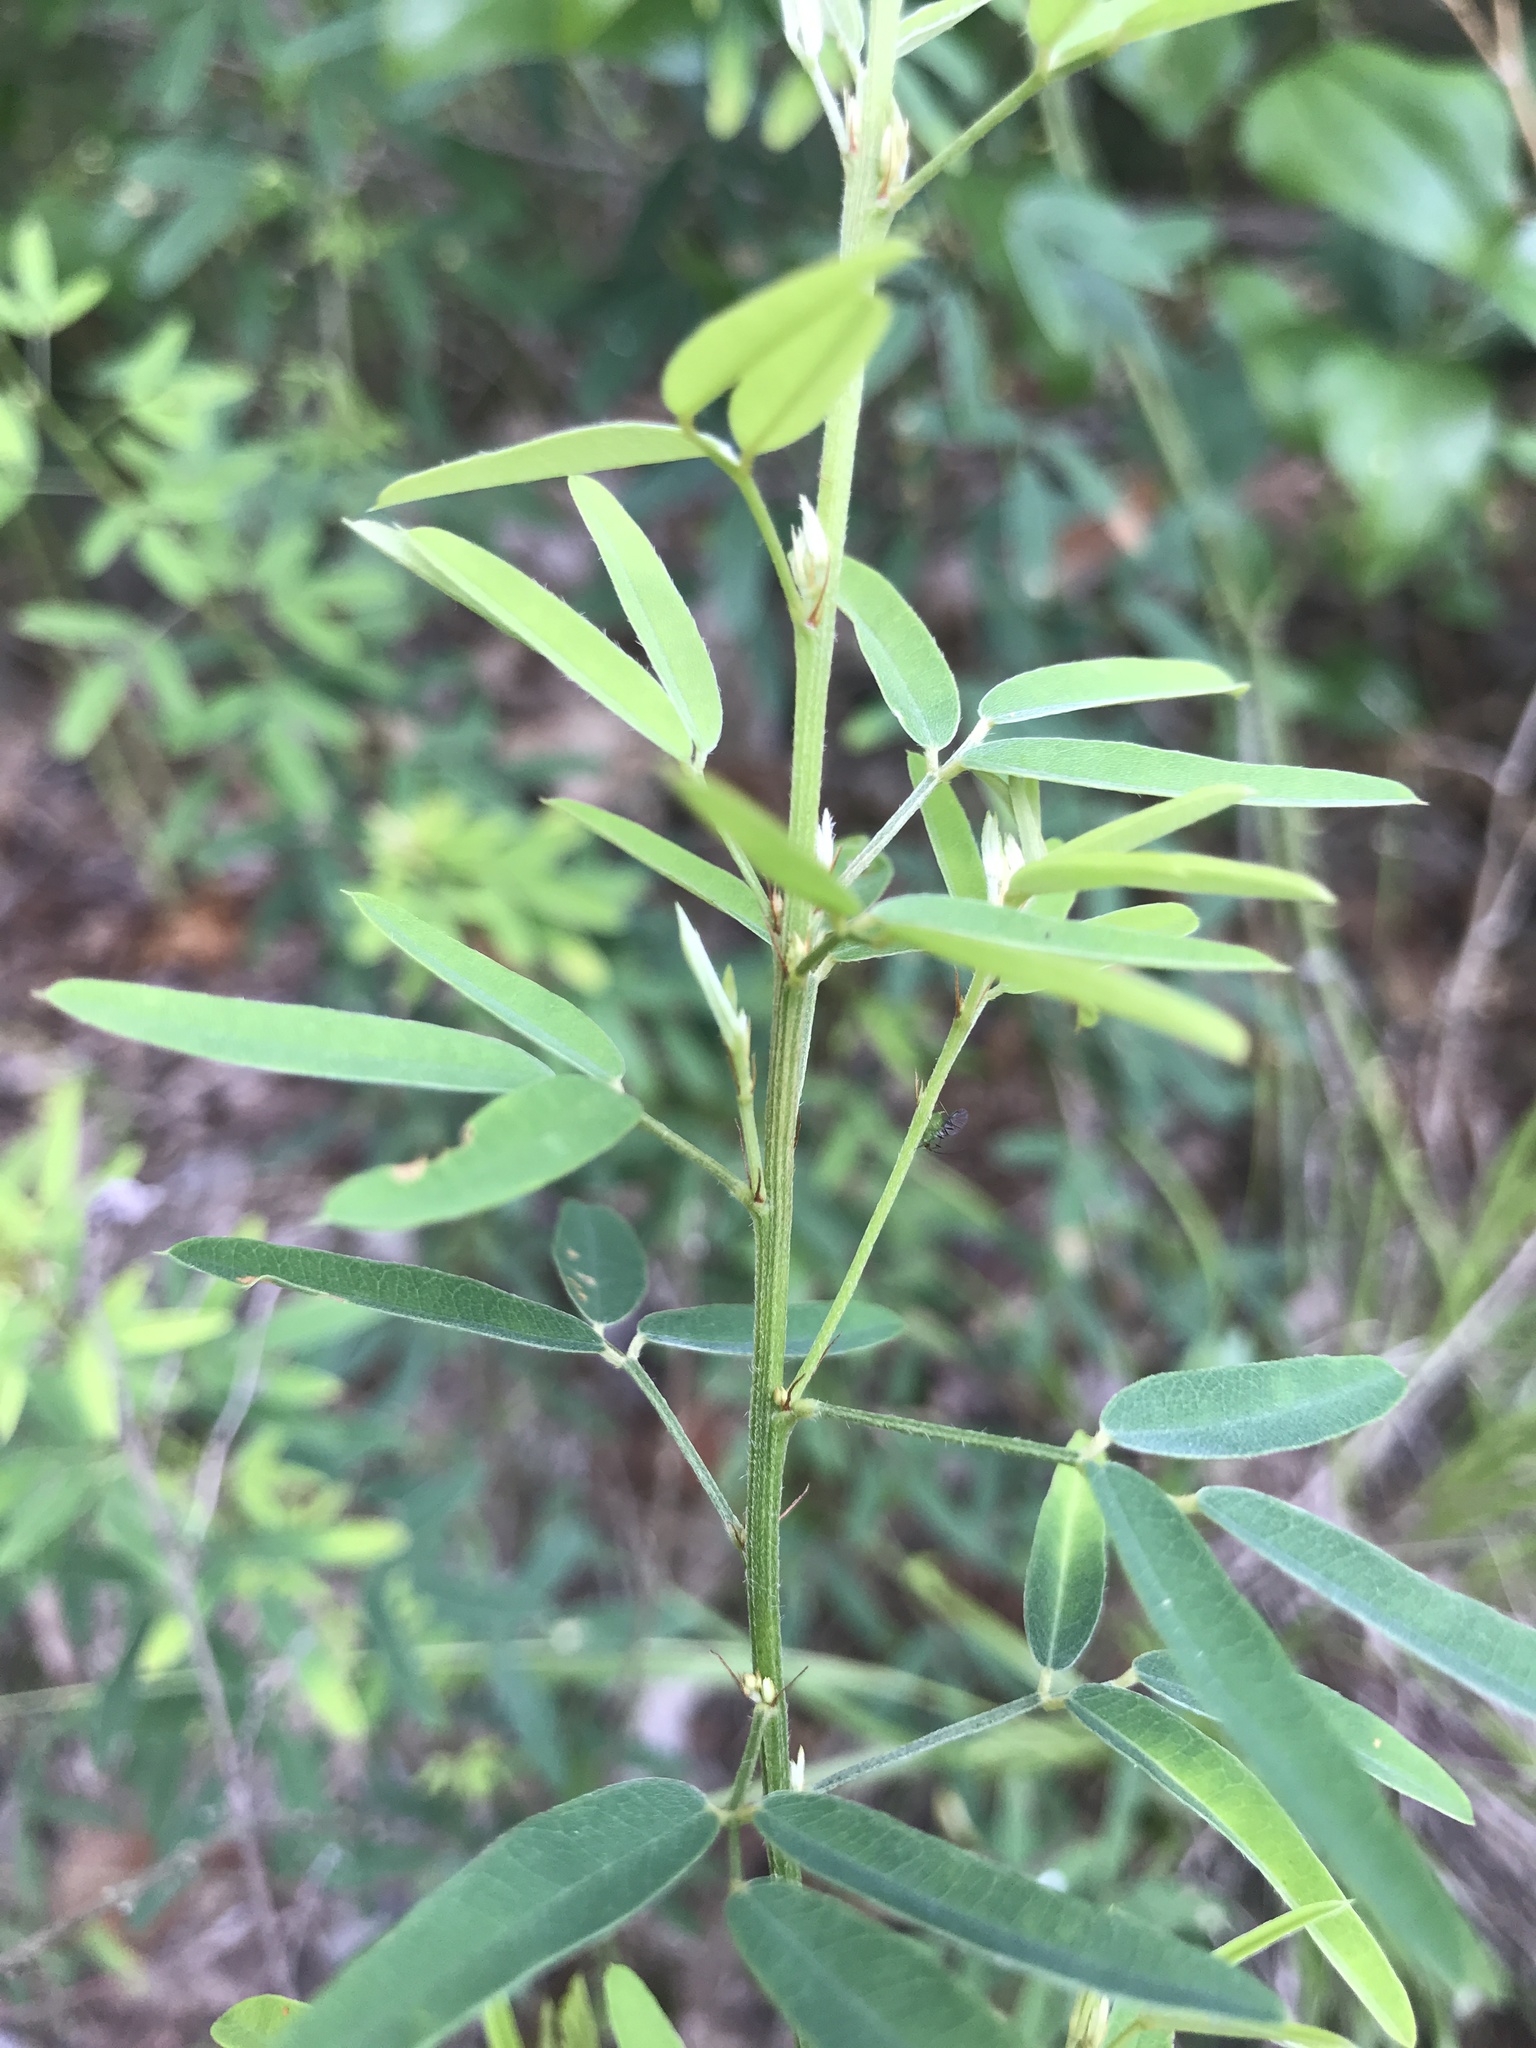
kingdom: Plantae
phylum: Tracheophyta
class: Magnoliopsida
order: Fabales
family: Fabaceae
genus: Lespedeza
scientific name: Lespedeza virginica
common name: Slender bush-clover
